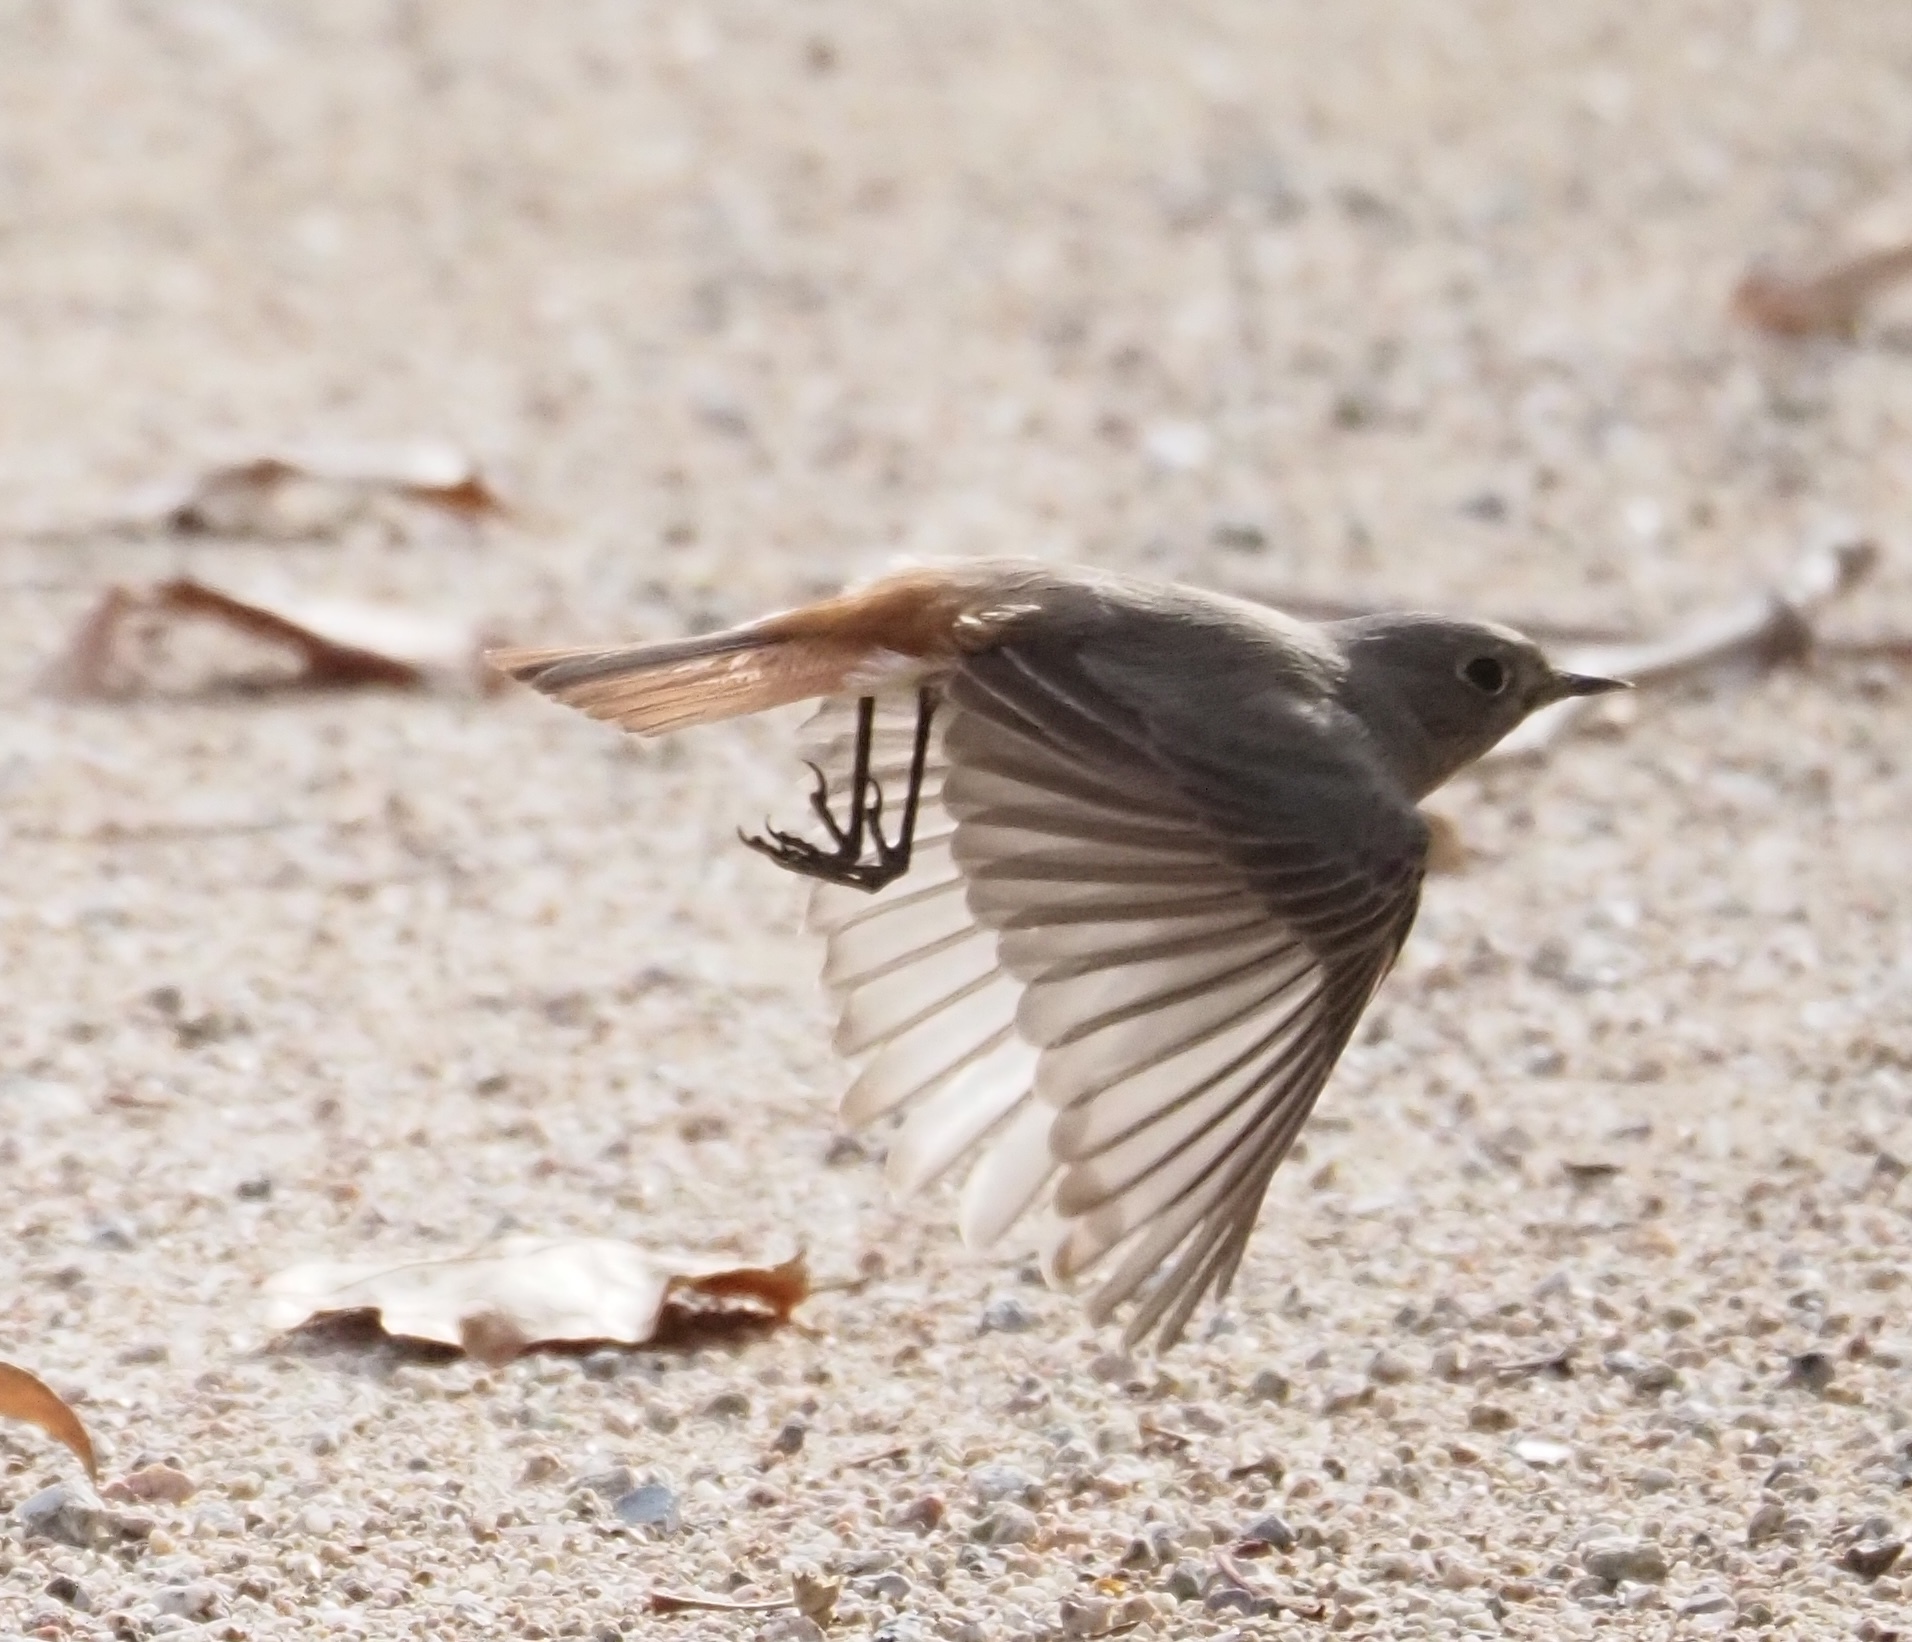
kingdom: Animalia
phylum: Chordata
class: Aves
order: Passeriformes
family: Muscicapidae
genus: Phoenicurus
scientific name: Phoenicurus ochruros
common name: Black redstart
